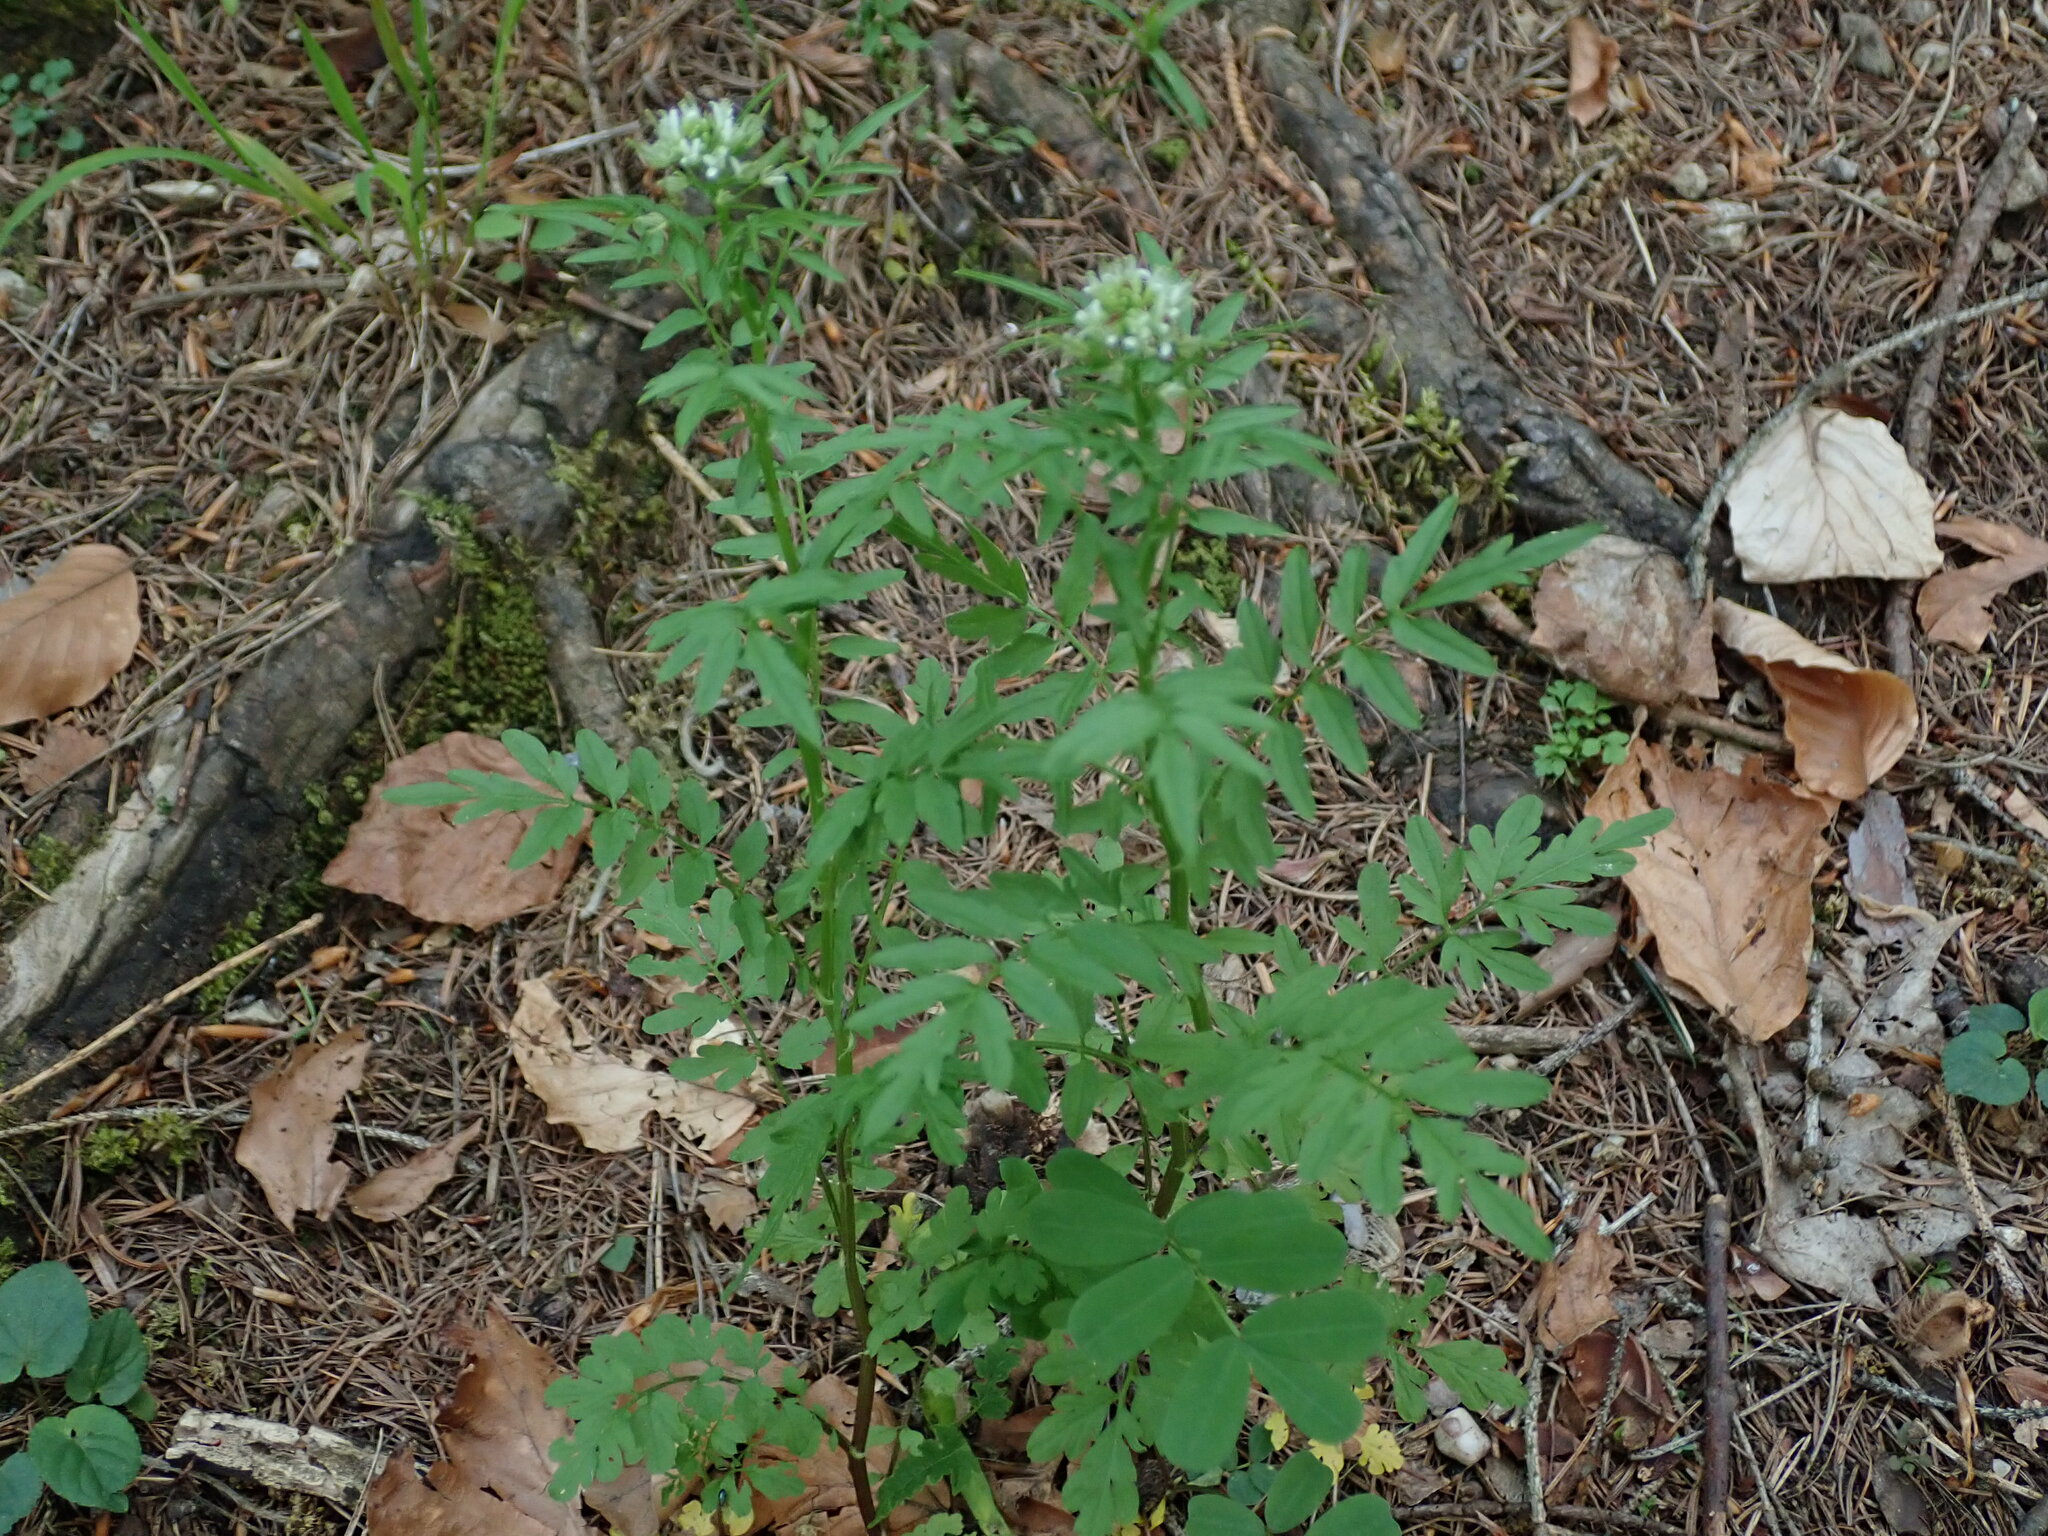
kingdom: Plantae
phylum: Tracheophyta
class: Magnoliopsida
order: Brassicales
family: Brassicaceae
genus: Cardamine
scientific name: Cardamine impatiens
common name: Narrow-leaved bitter-cress
